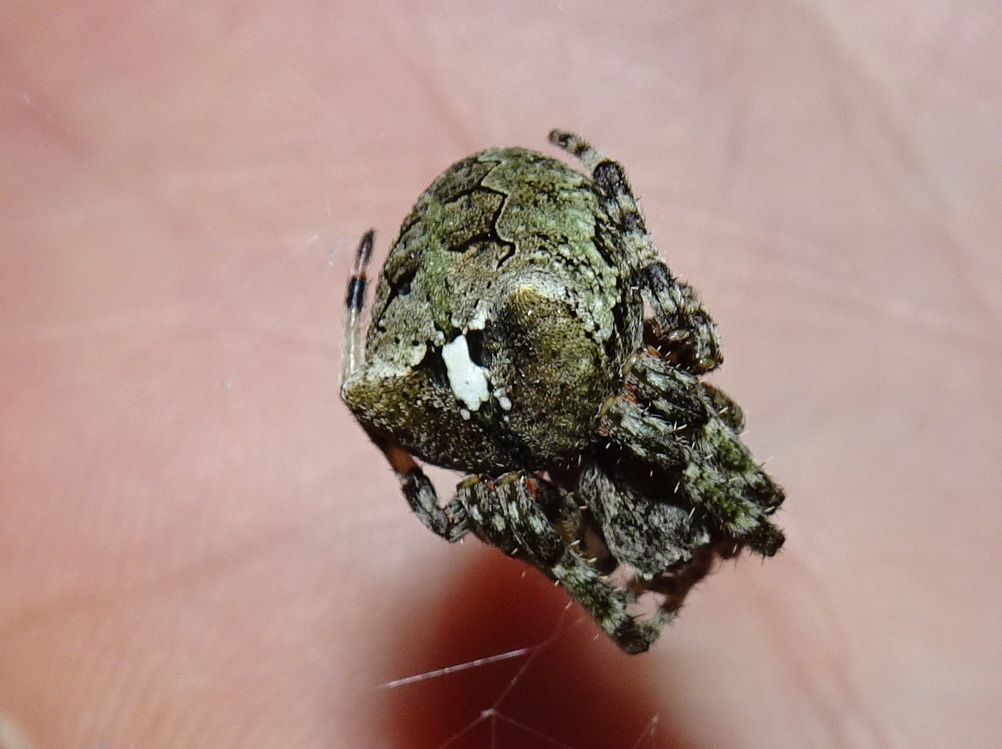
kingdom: Animalia
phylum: Arthropoda
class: Arachnida
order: Araneae
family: Araneidae
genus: Araneus
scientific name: Araneus bicentenarius
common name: Giant lichen orbweaver
